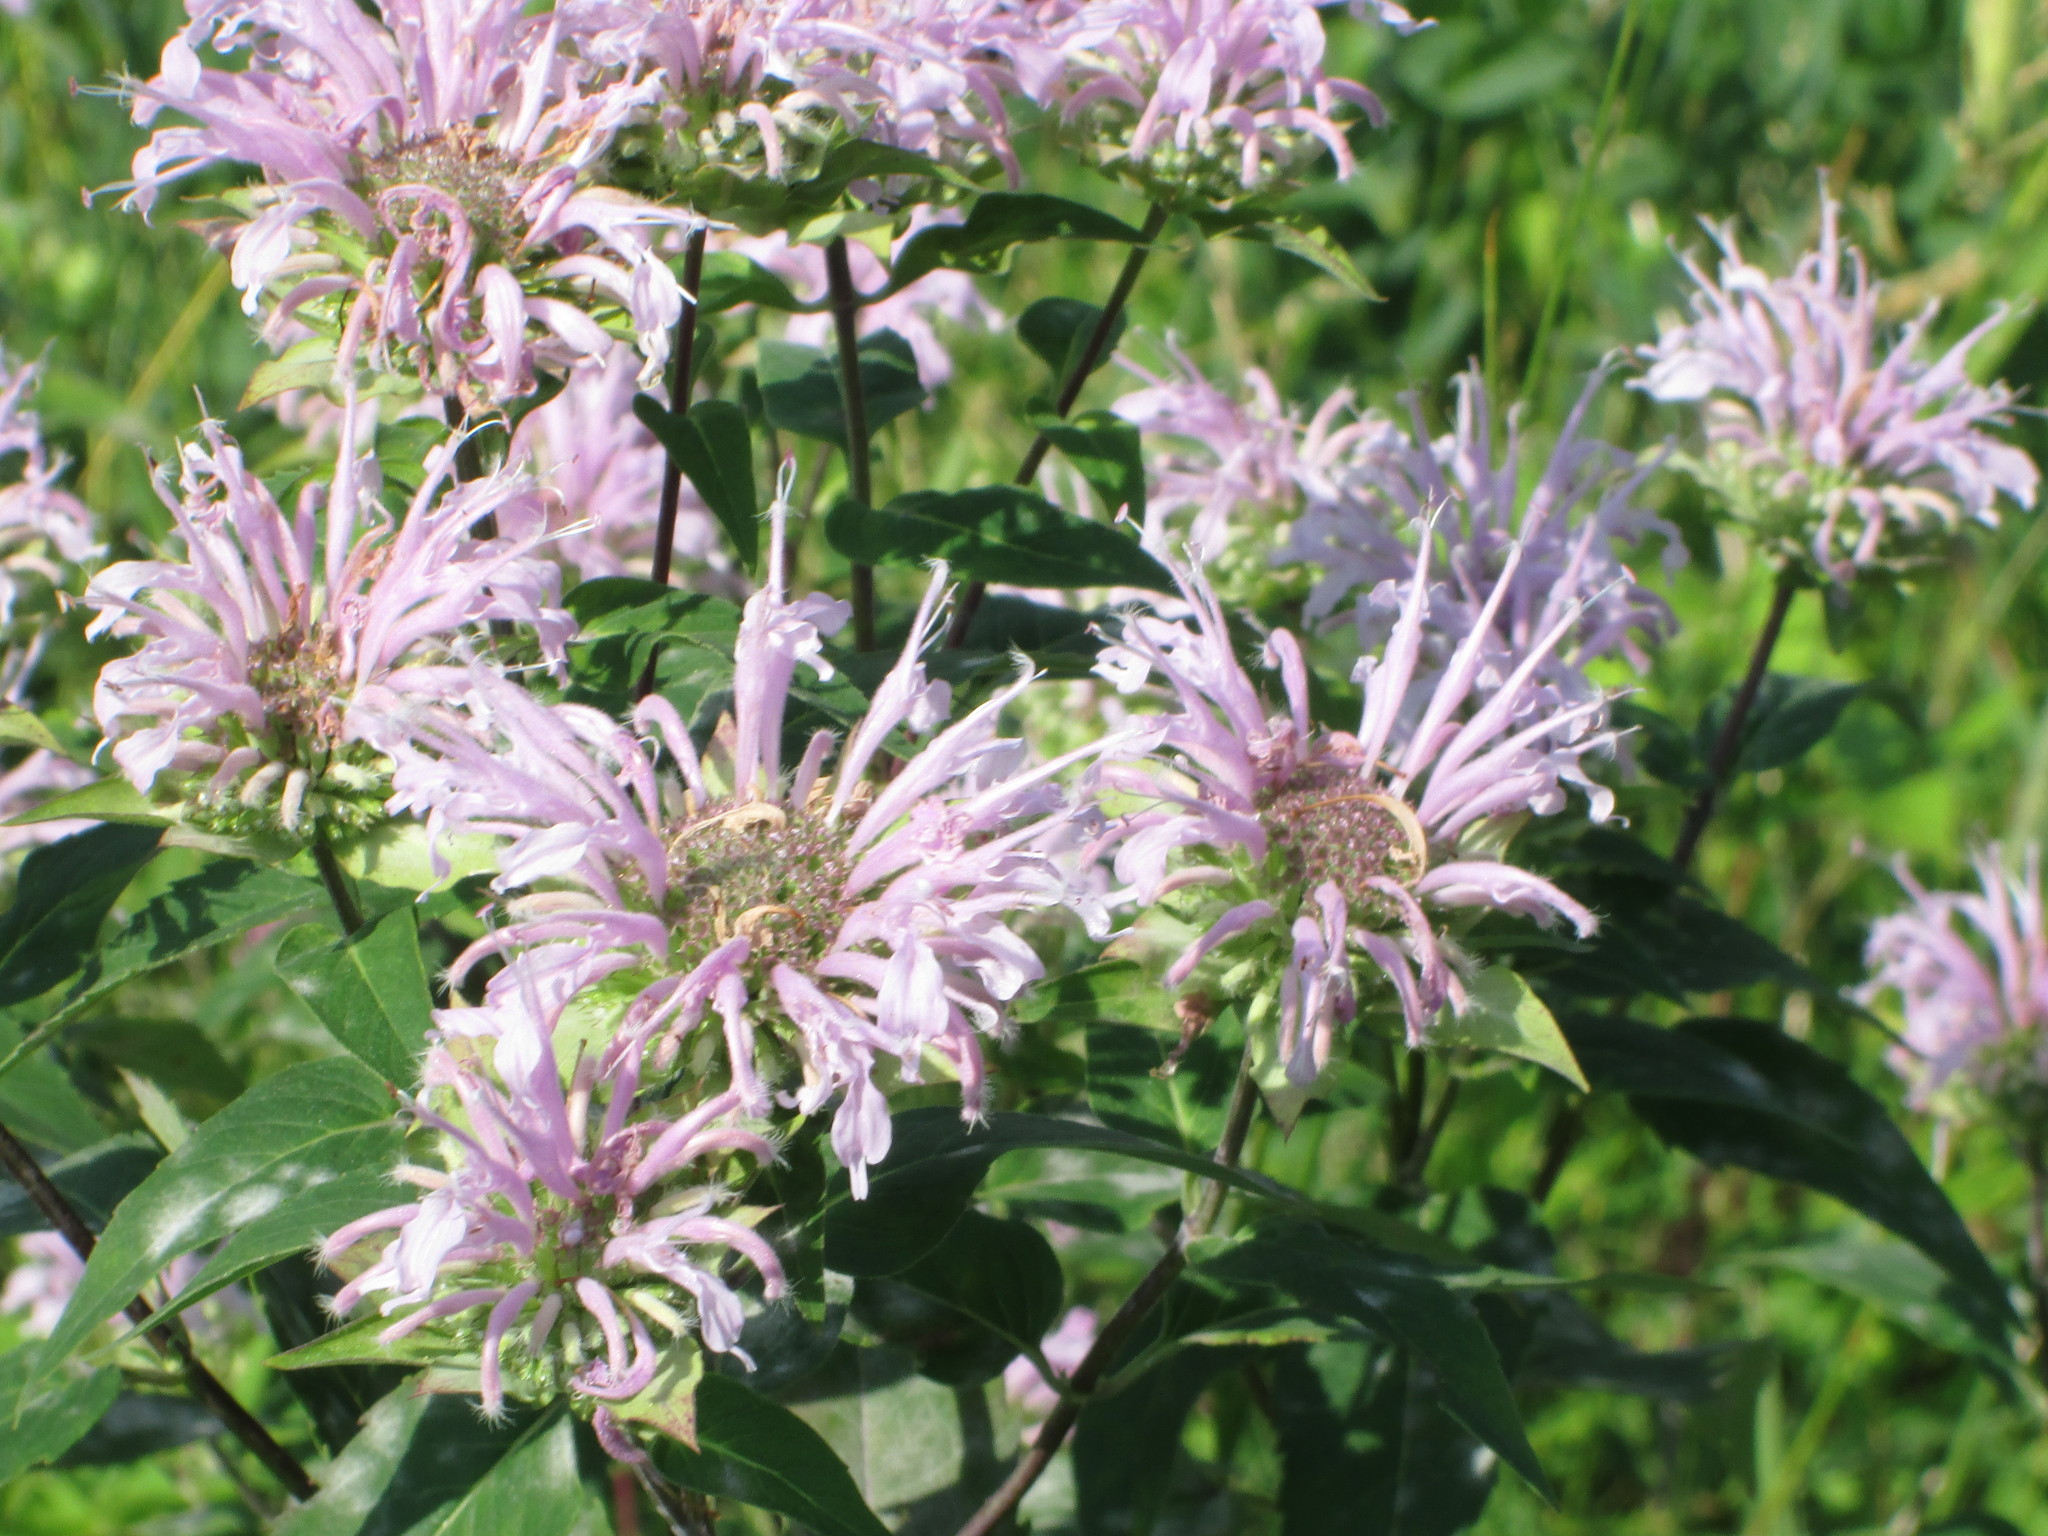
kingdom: Plantae
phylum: Tracheophyta
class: Magnoliopsida
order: Lamiales
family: Lamiaceae
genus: Monarda
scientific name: Monarda fistulosa
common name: Purple beebalm
